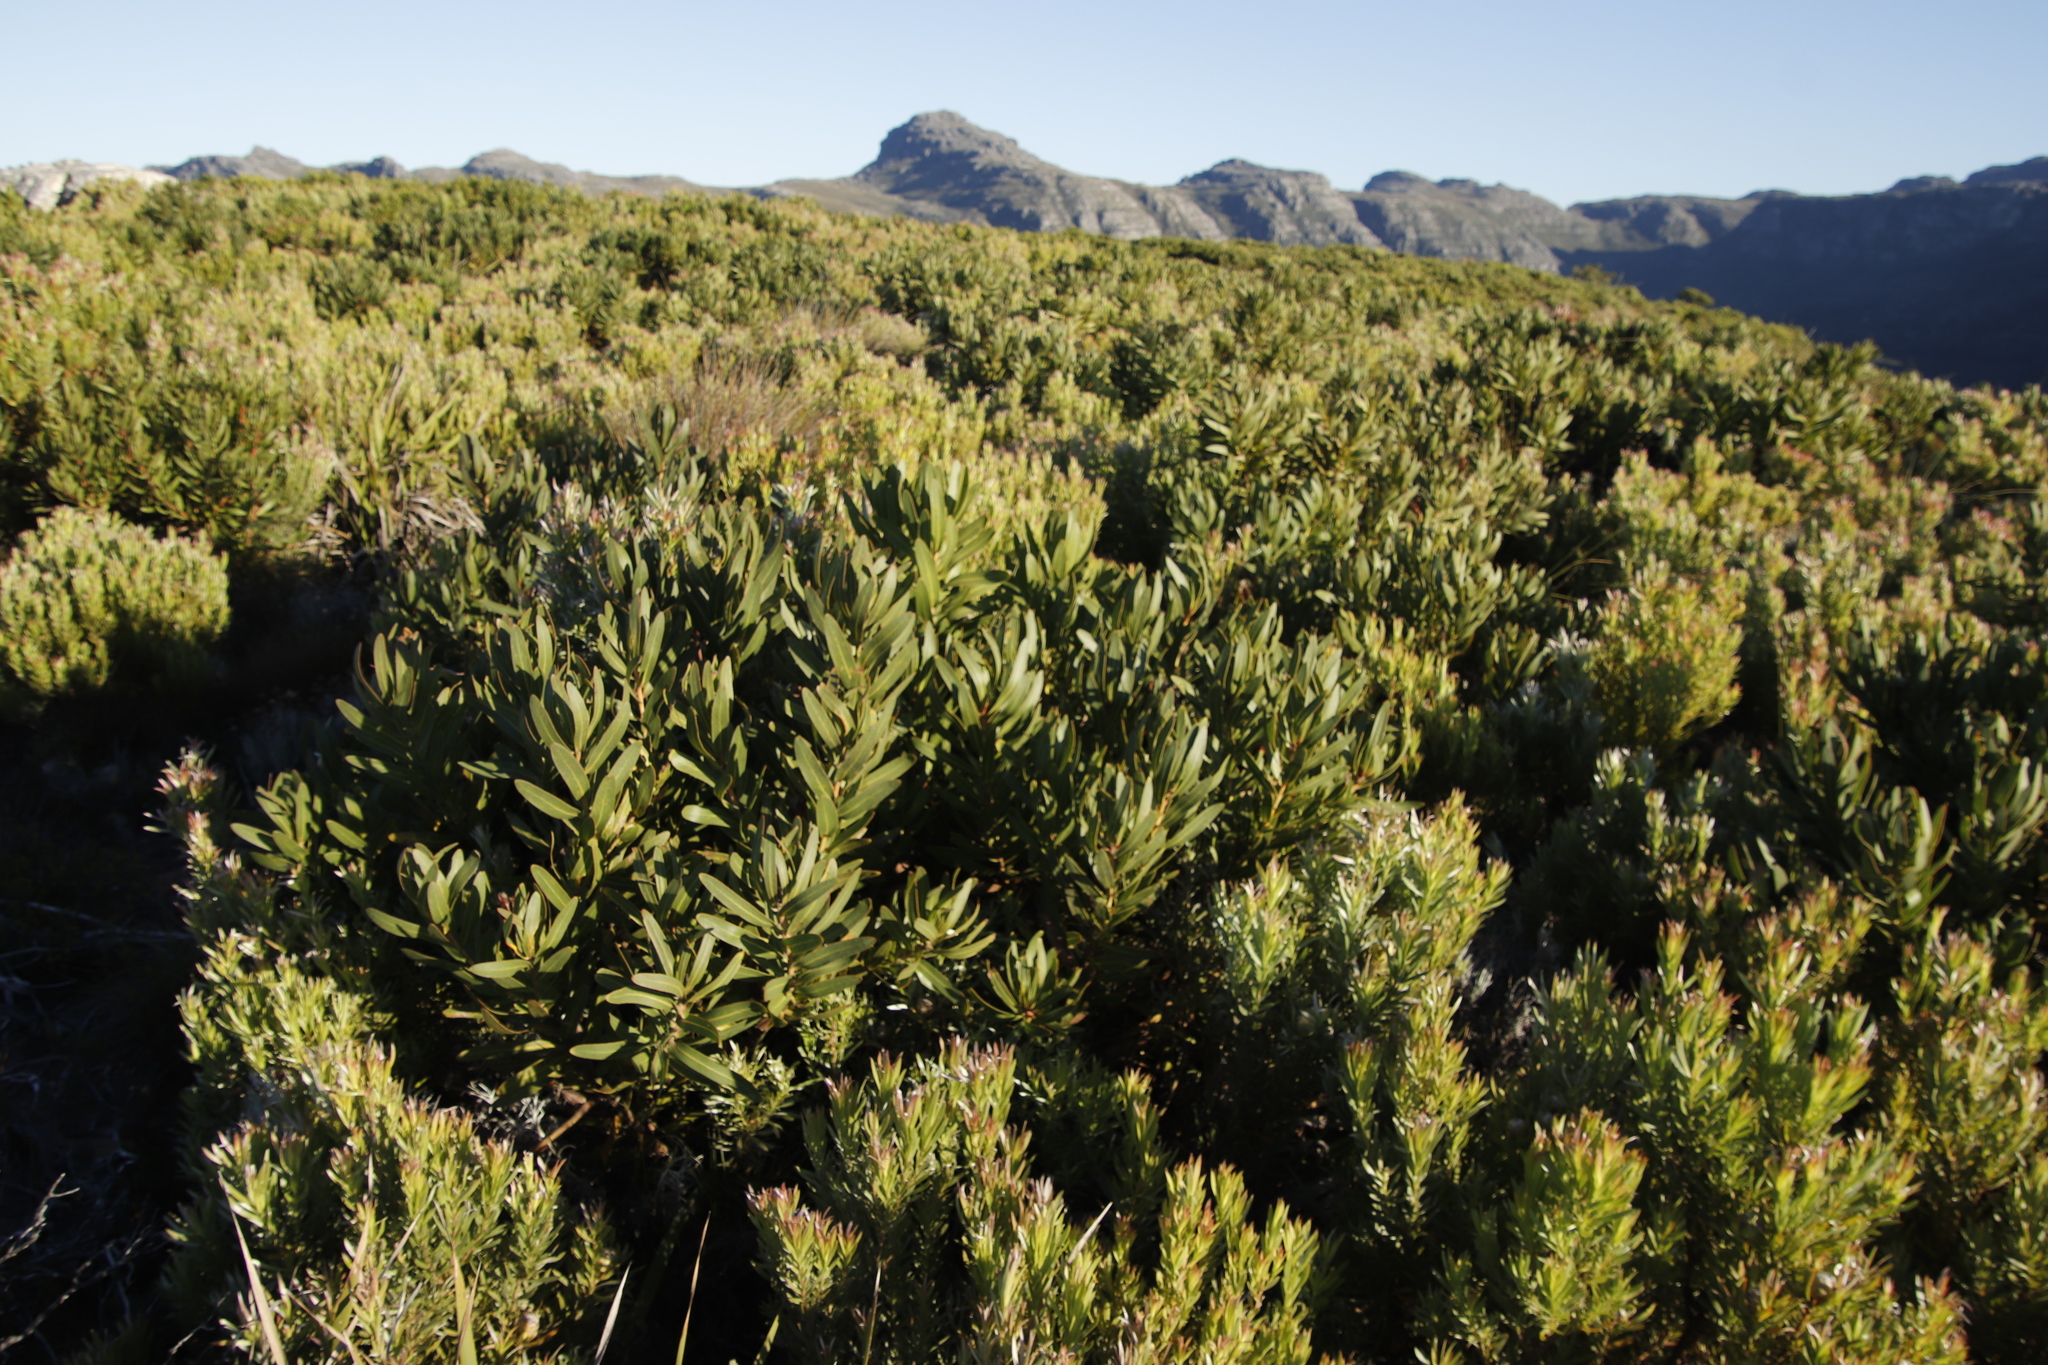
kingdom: Plantae
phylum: Tracheophyta
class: Magnoliopsida
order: Proteales
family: Proteaceae
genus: Protea
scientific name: Protea lepidocarpodendron
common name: Black-bearded protea
